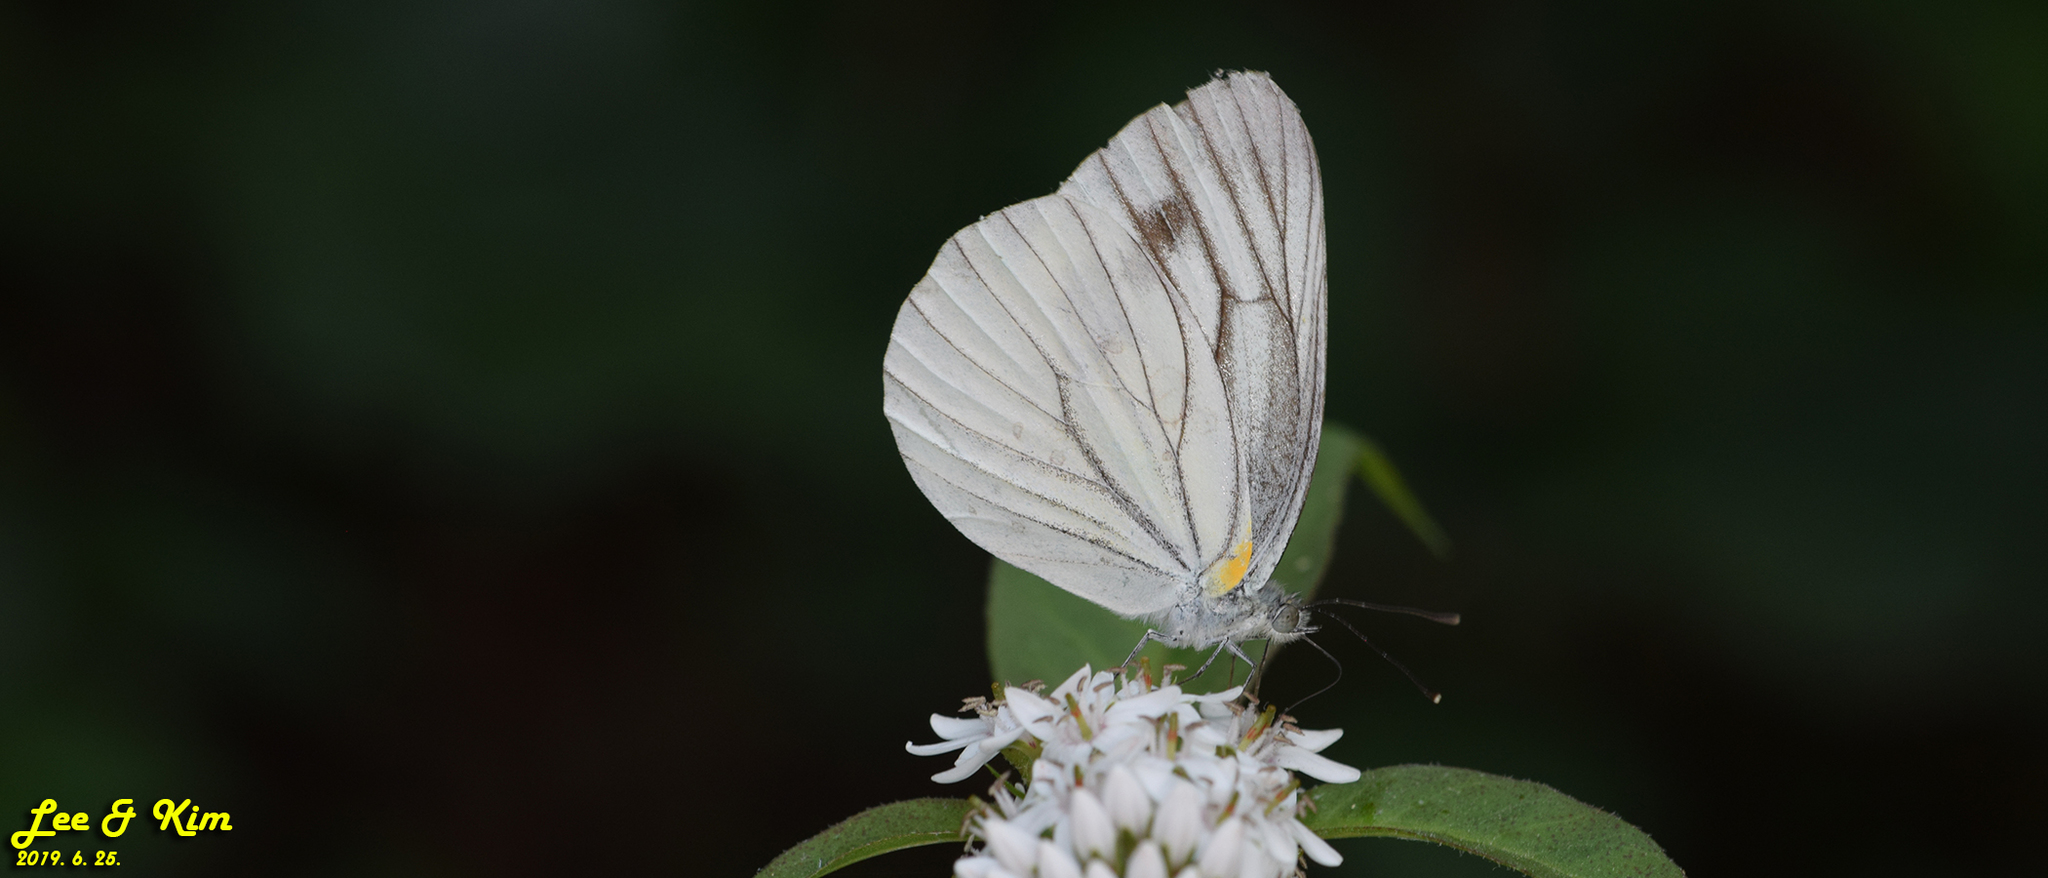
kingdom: Animalia
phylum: Arthropoda
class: Insecta
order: Lepidoptera
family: Pieridae
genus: Pieris
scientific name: Pieris melete
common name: Asian green-veined white
